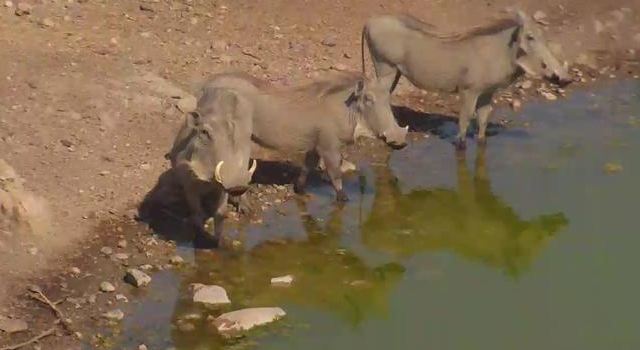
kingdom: Animalia
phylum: Chordata
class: Mammalia
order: Artiodactyla
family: Suidae
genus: Phacochoerus
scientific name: Phacochoerus africanus
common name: Common warthog
